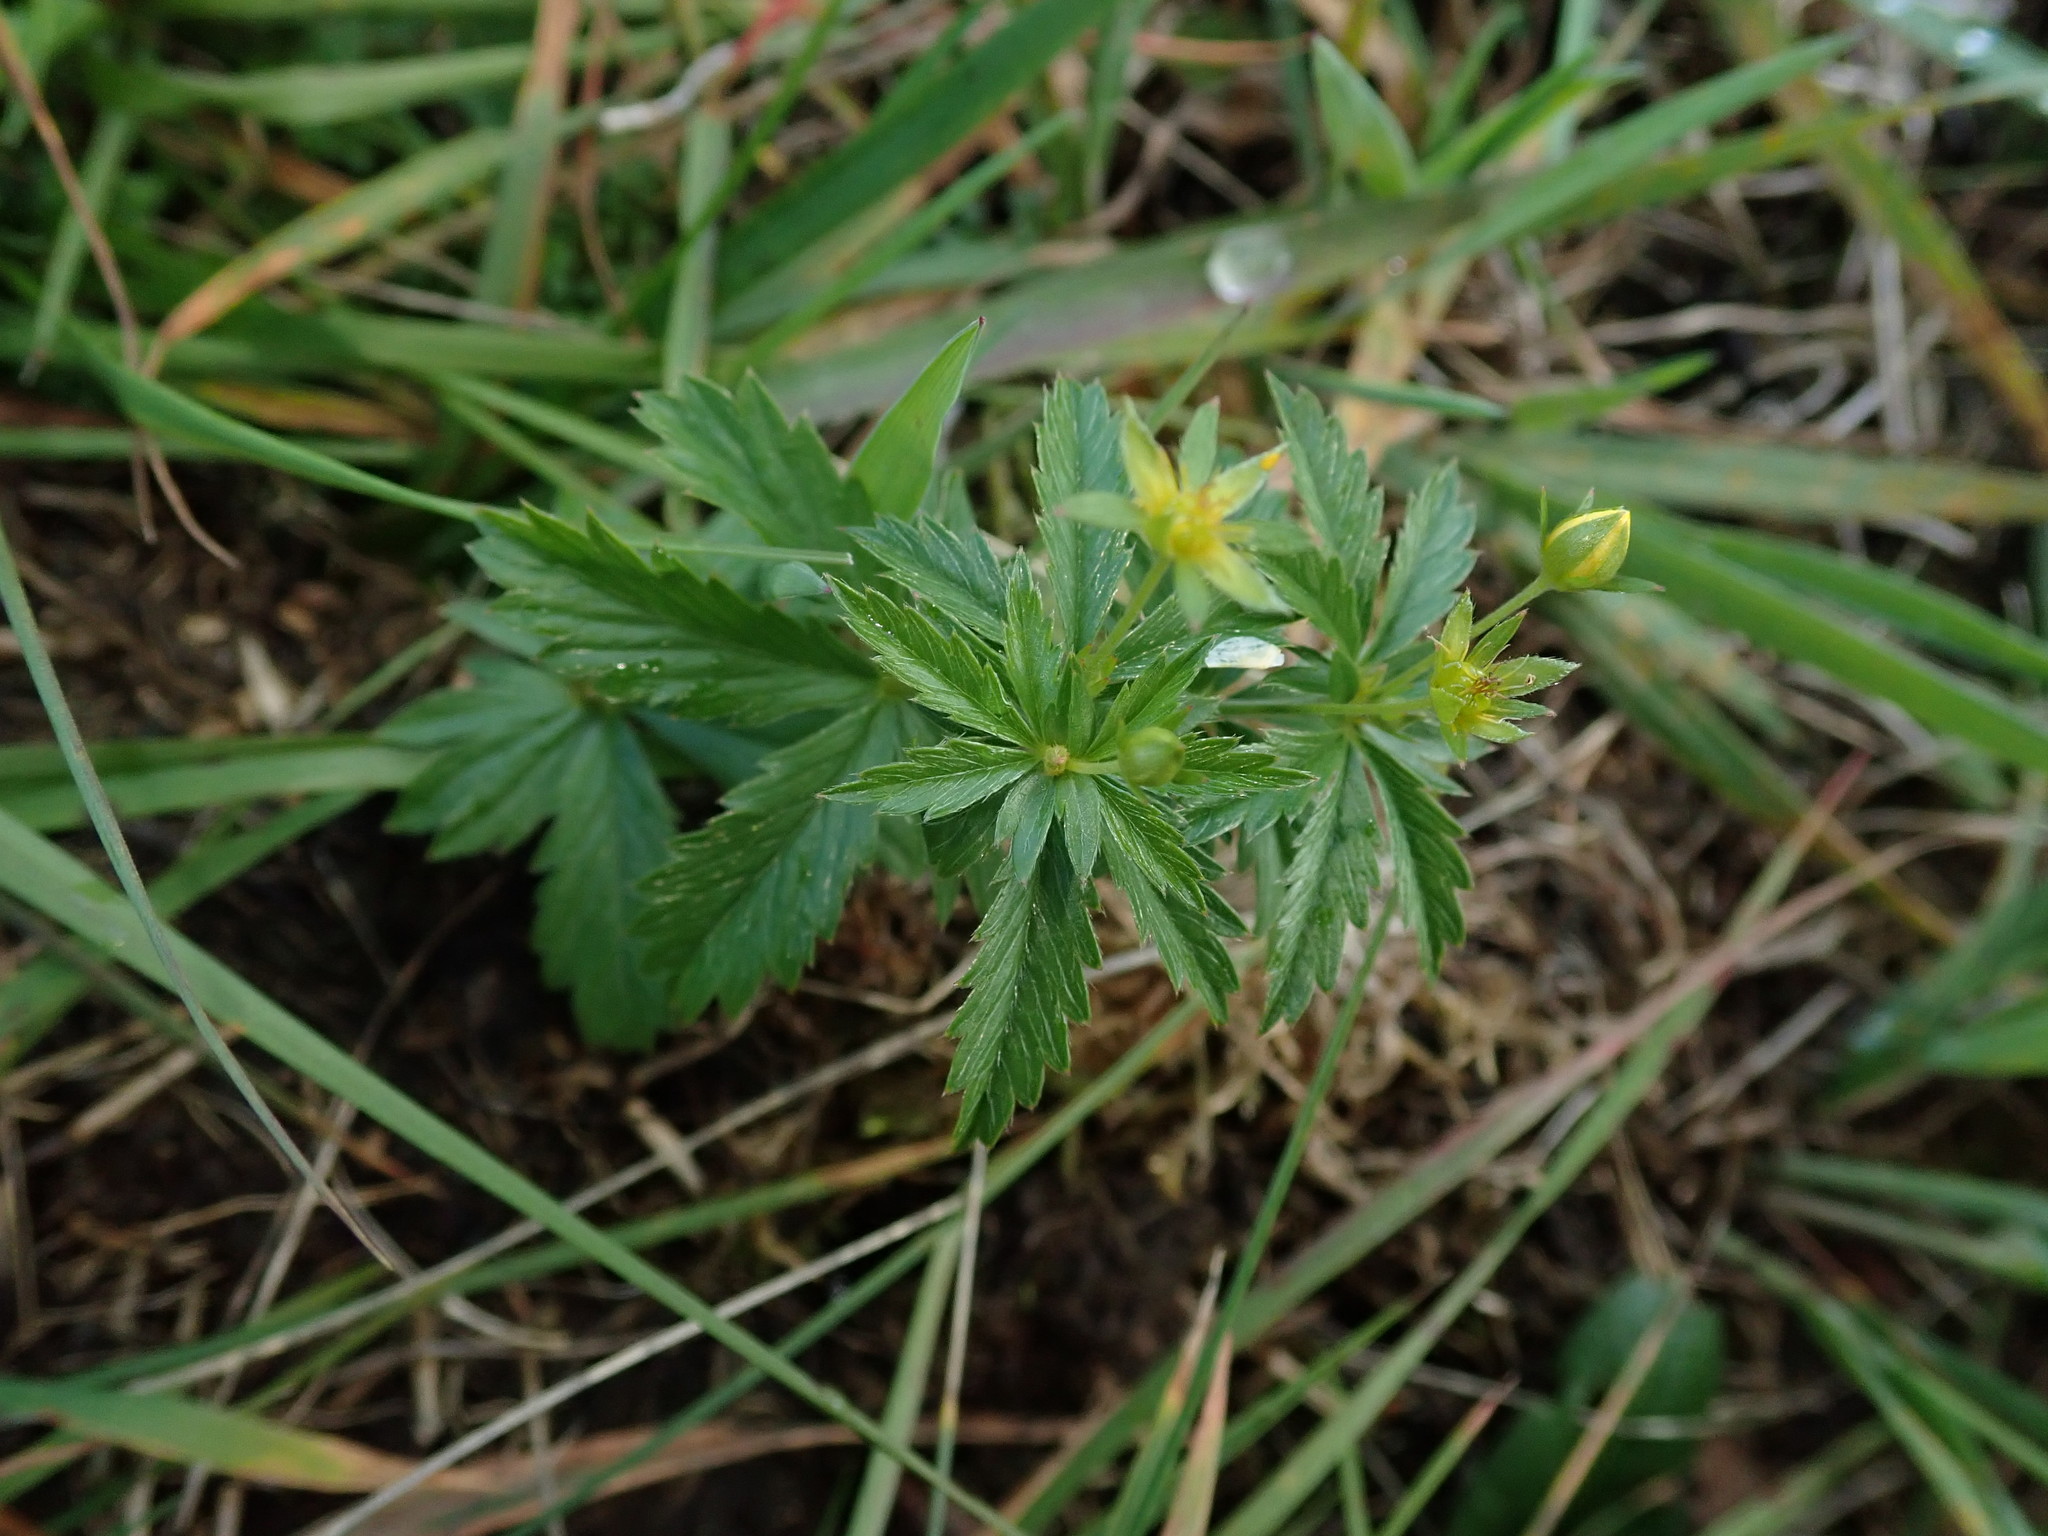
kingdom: Plantae
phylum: Tracheophyta
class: Magnoliopsida
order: Rosales
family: Rosaceae
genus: Potentilla
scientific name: Potentilla erecta
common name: Tormentil
